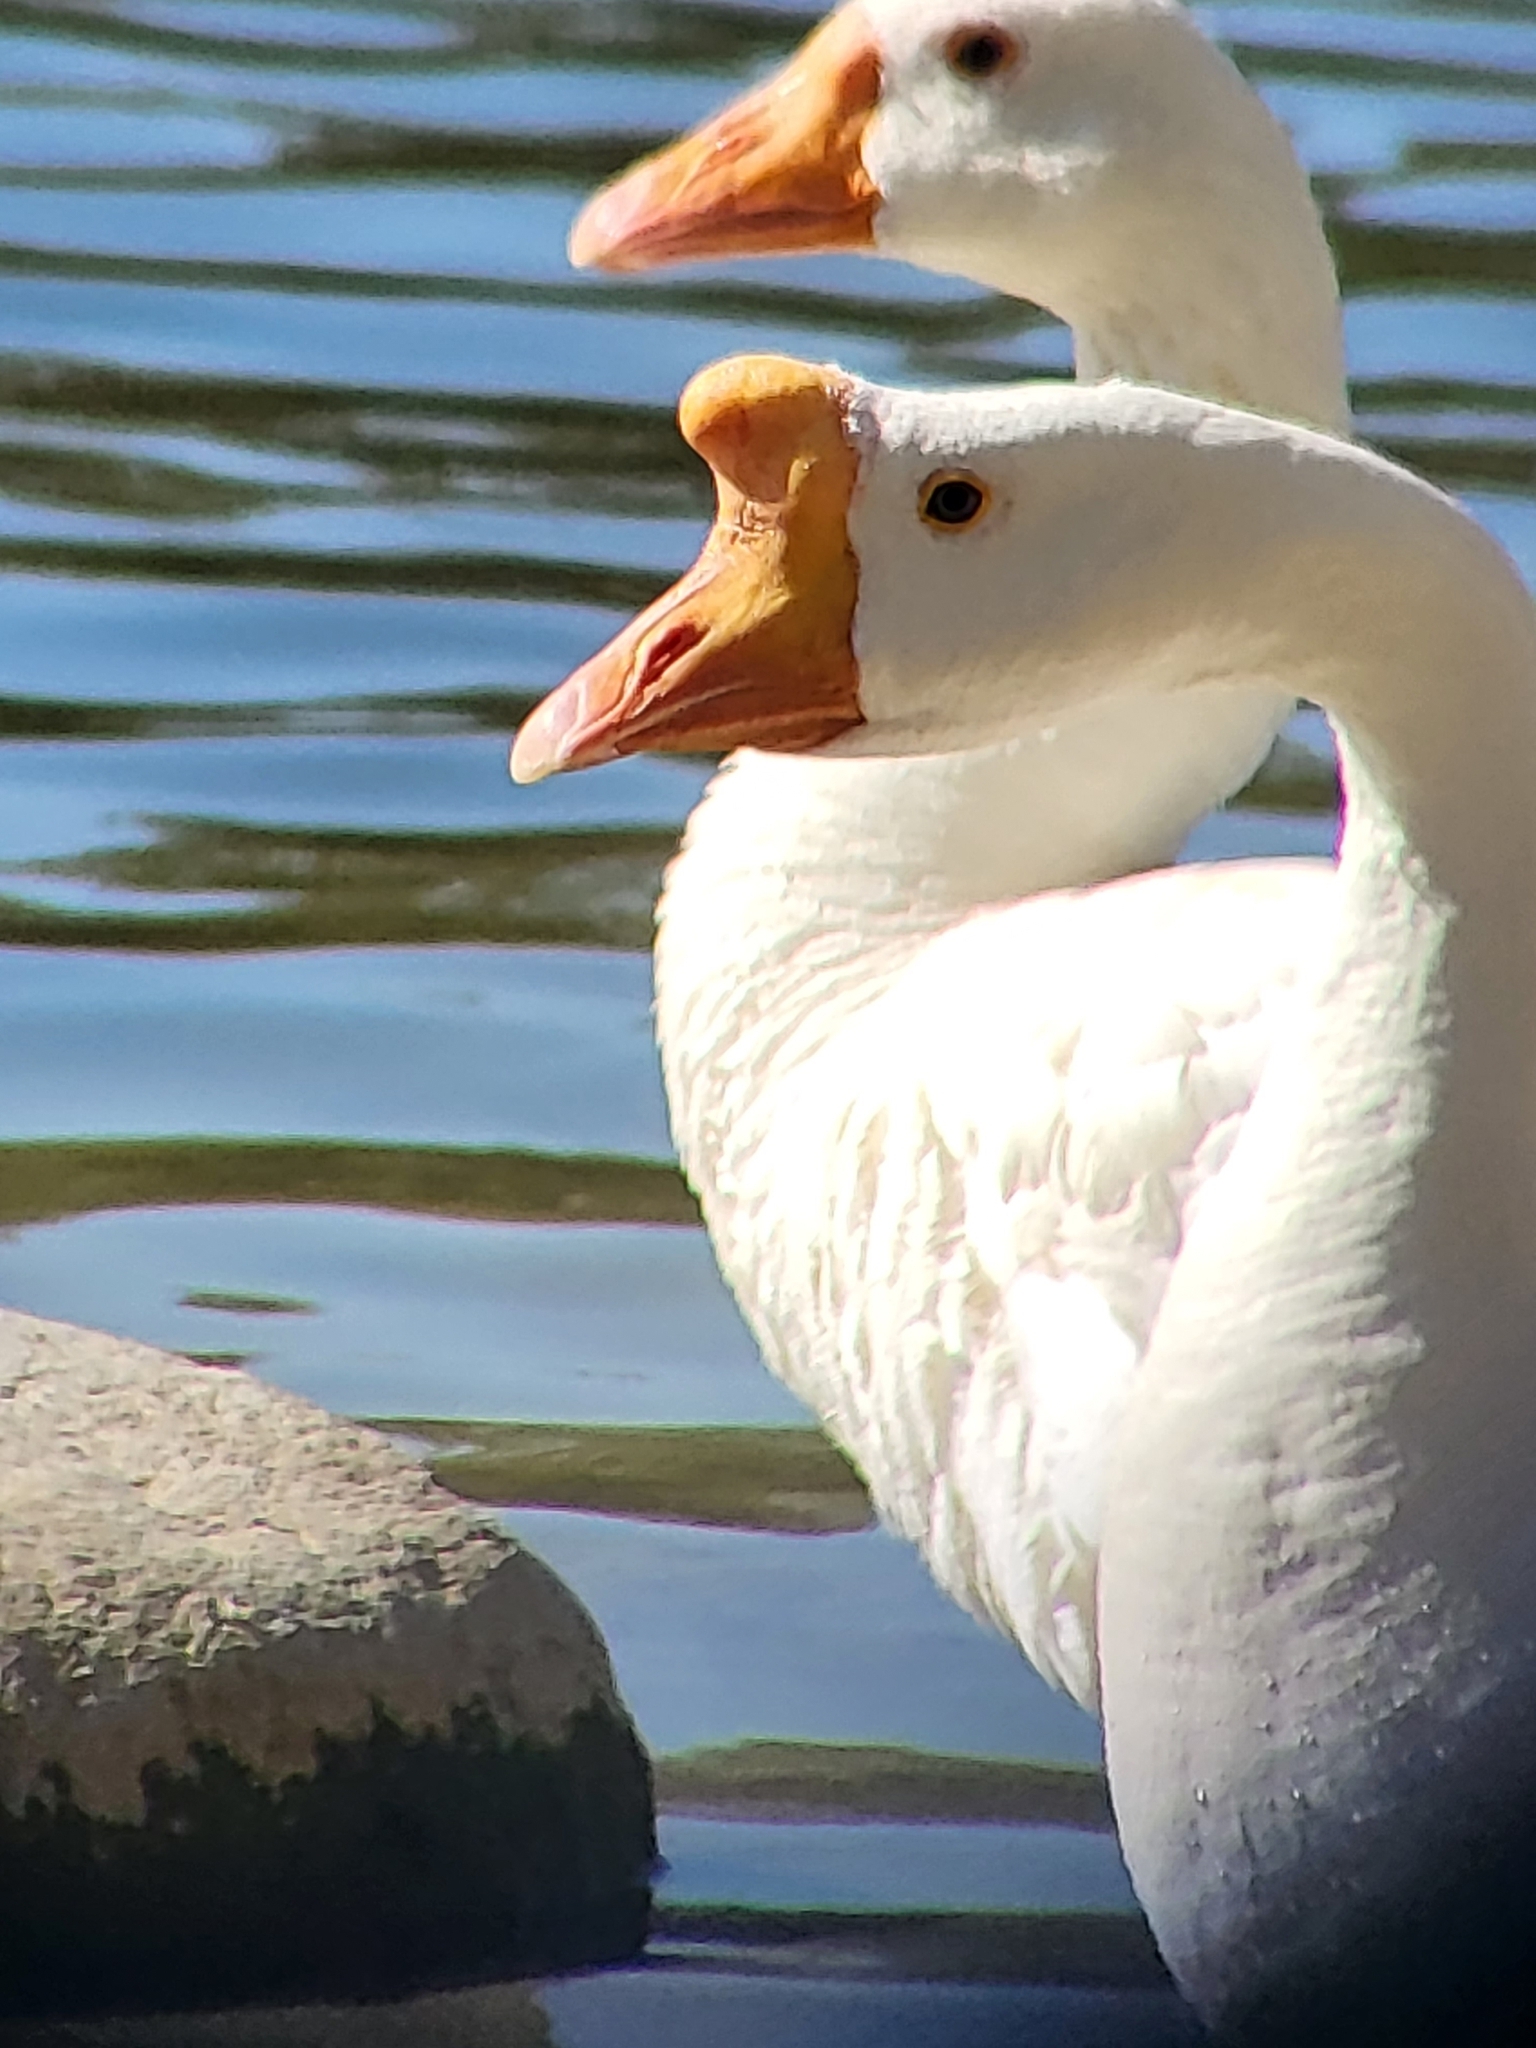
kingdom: Animalia
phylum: Chordata
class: Aves
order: Anseriformes
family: Anatidae
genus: Anser
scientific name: Anser cygnoides
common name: Swan goose
